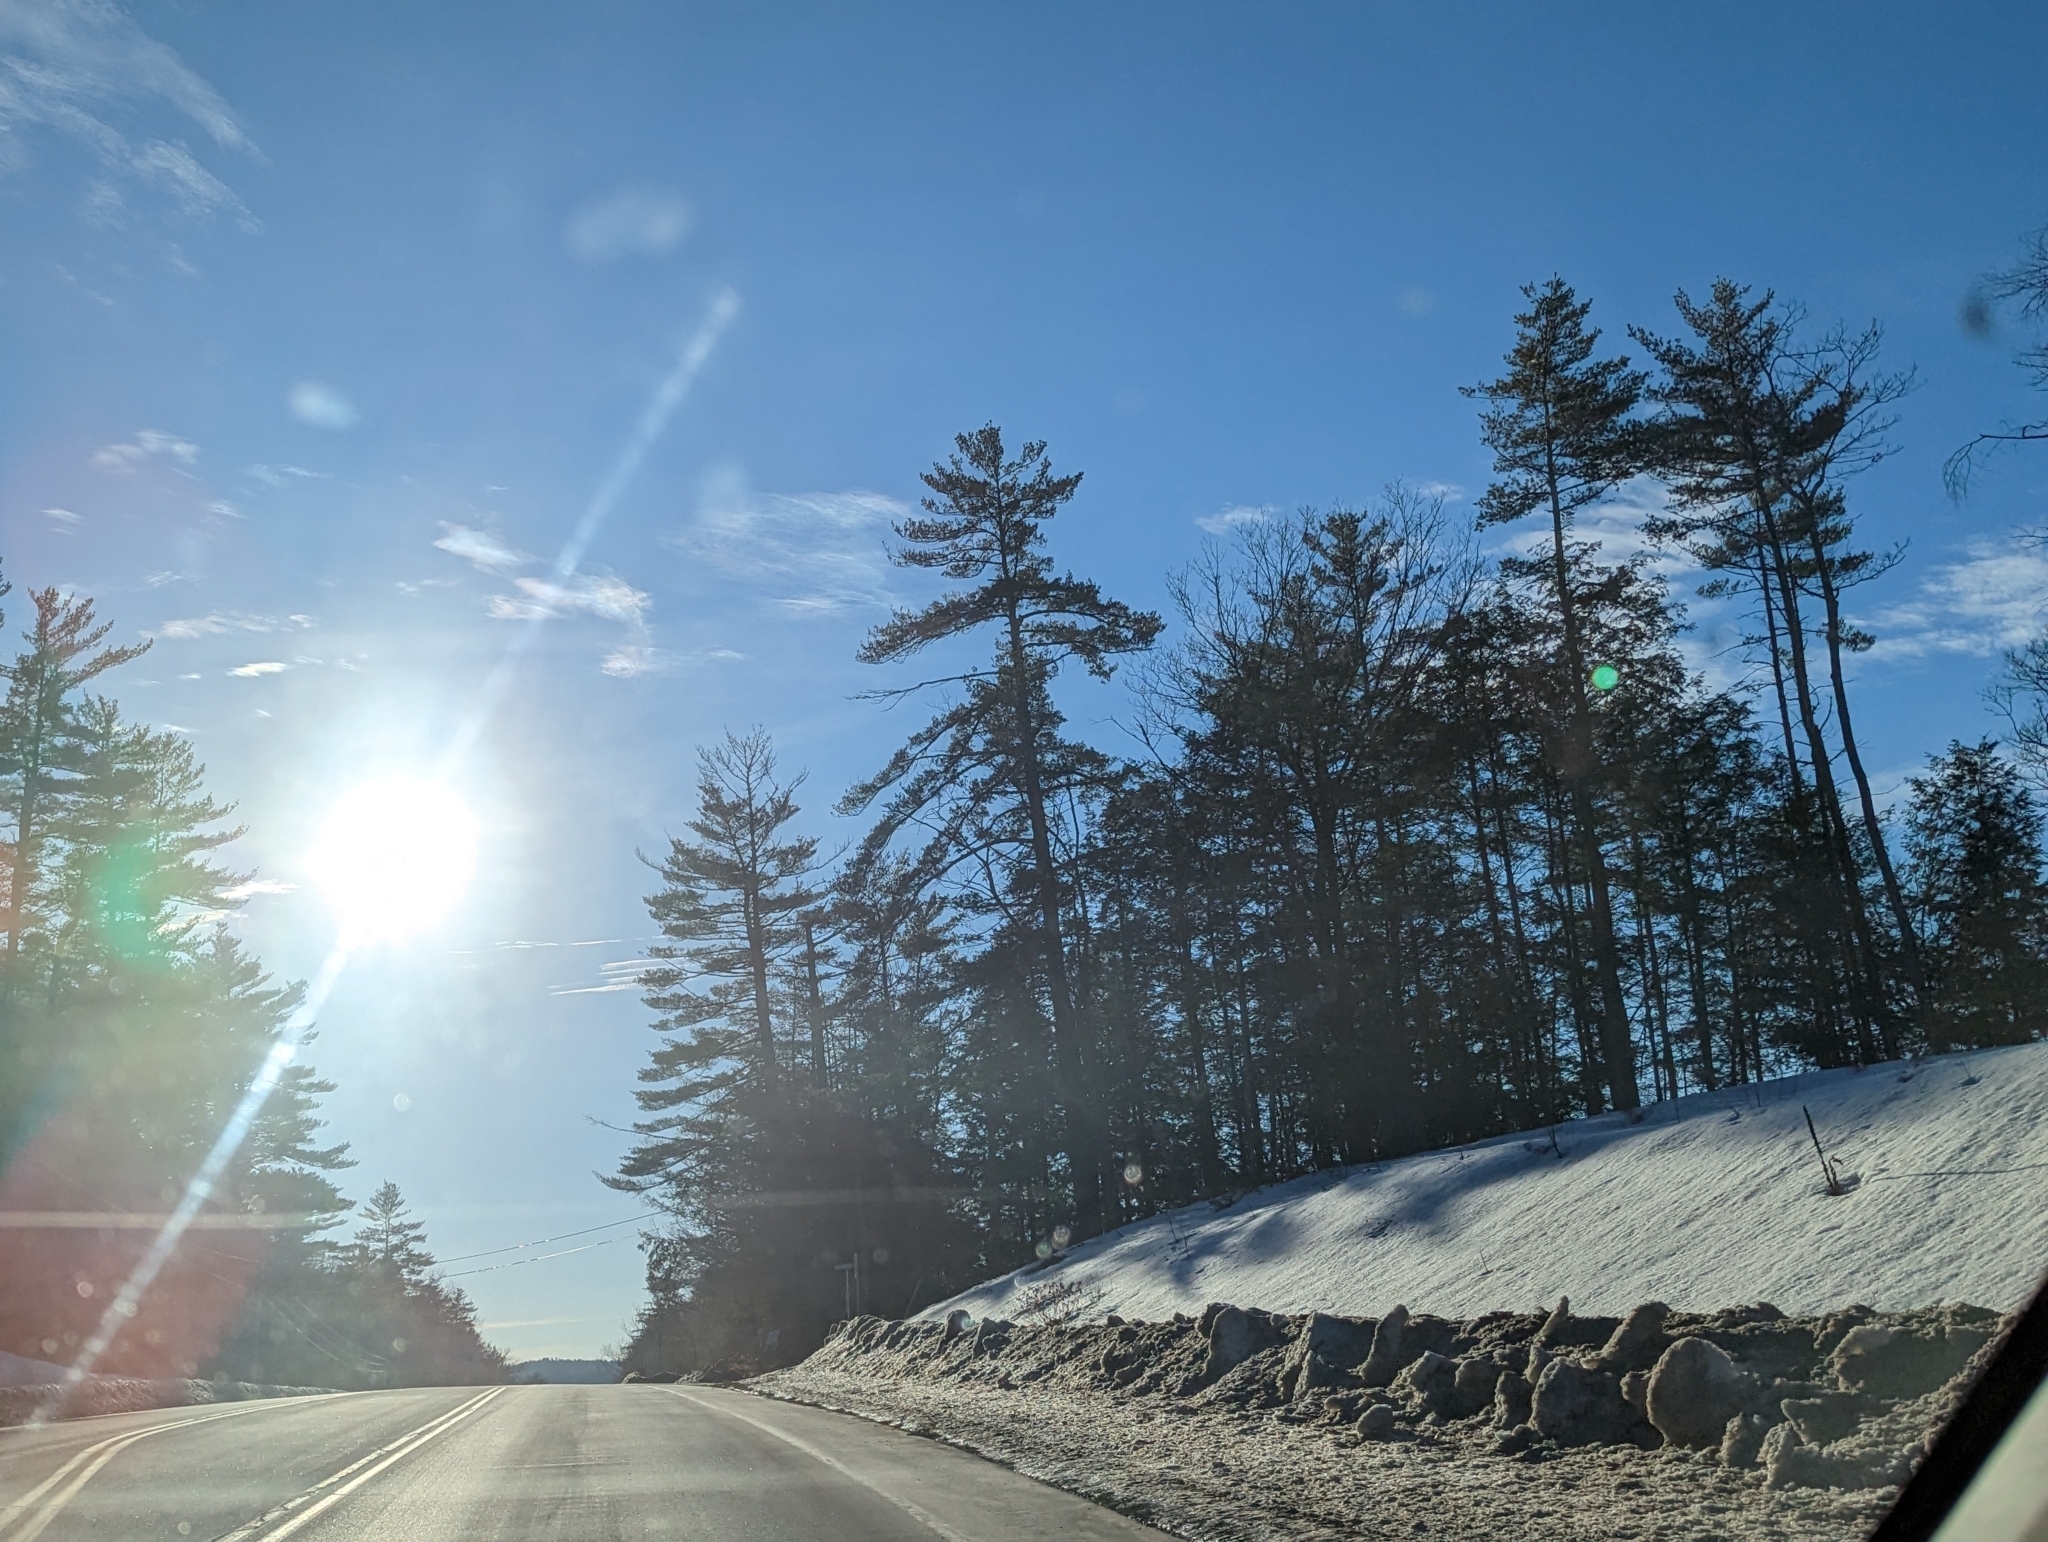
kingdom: Plantae
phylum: Tracheophyta
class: Pinopsida
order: Pinales
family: Pinaceae
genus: Pinus
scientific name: Pinus strobus
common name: Weymouth pine
